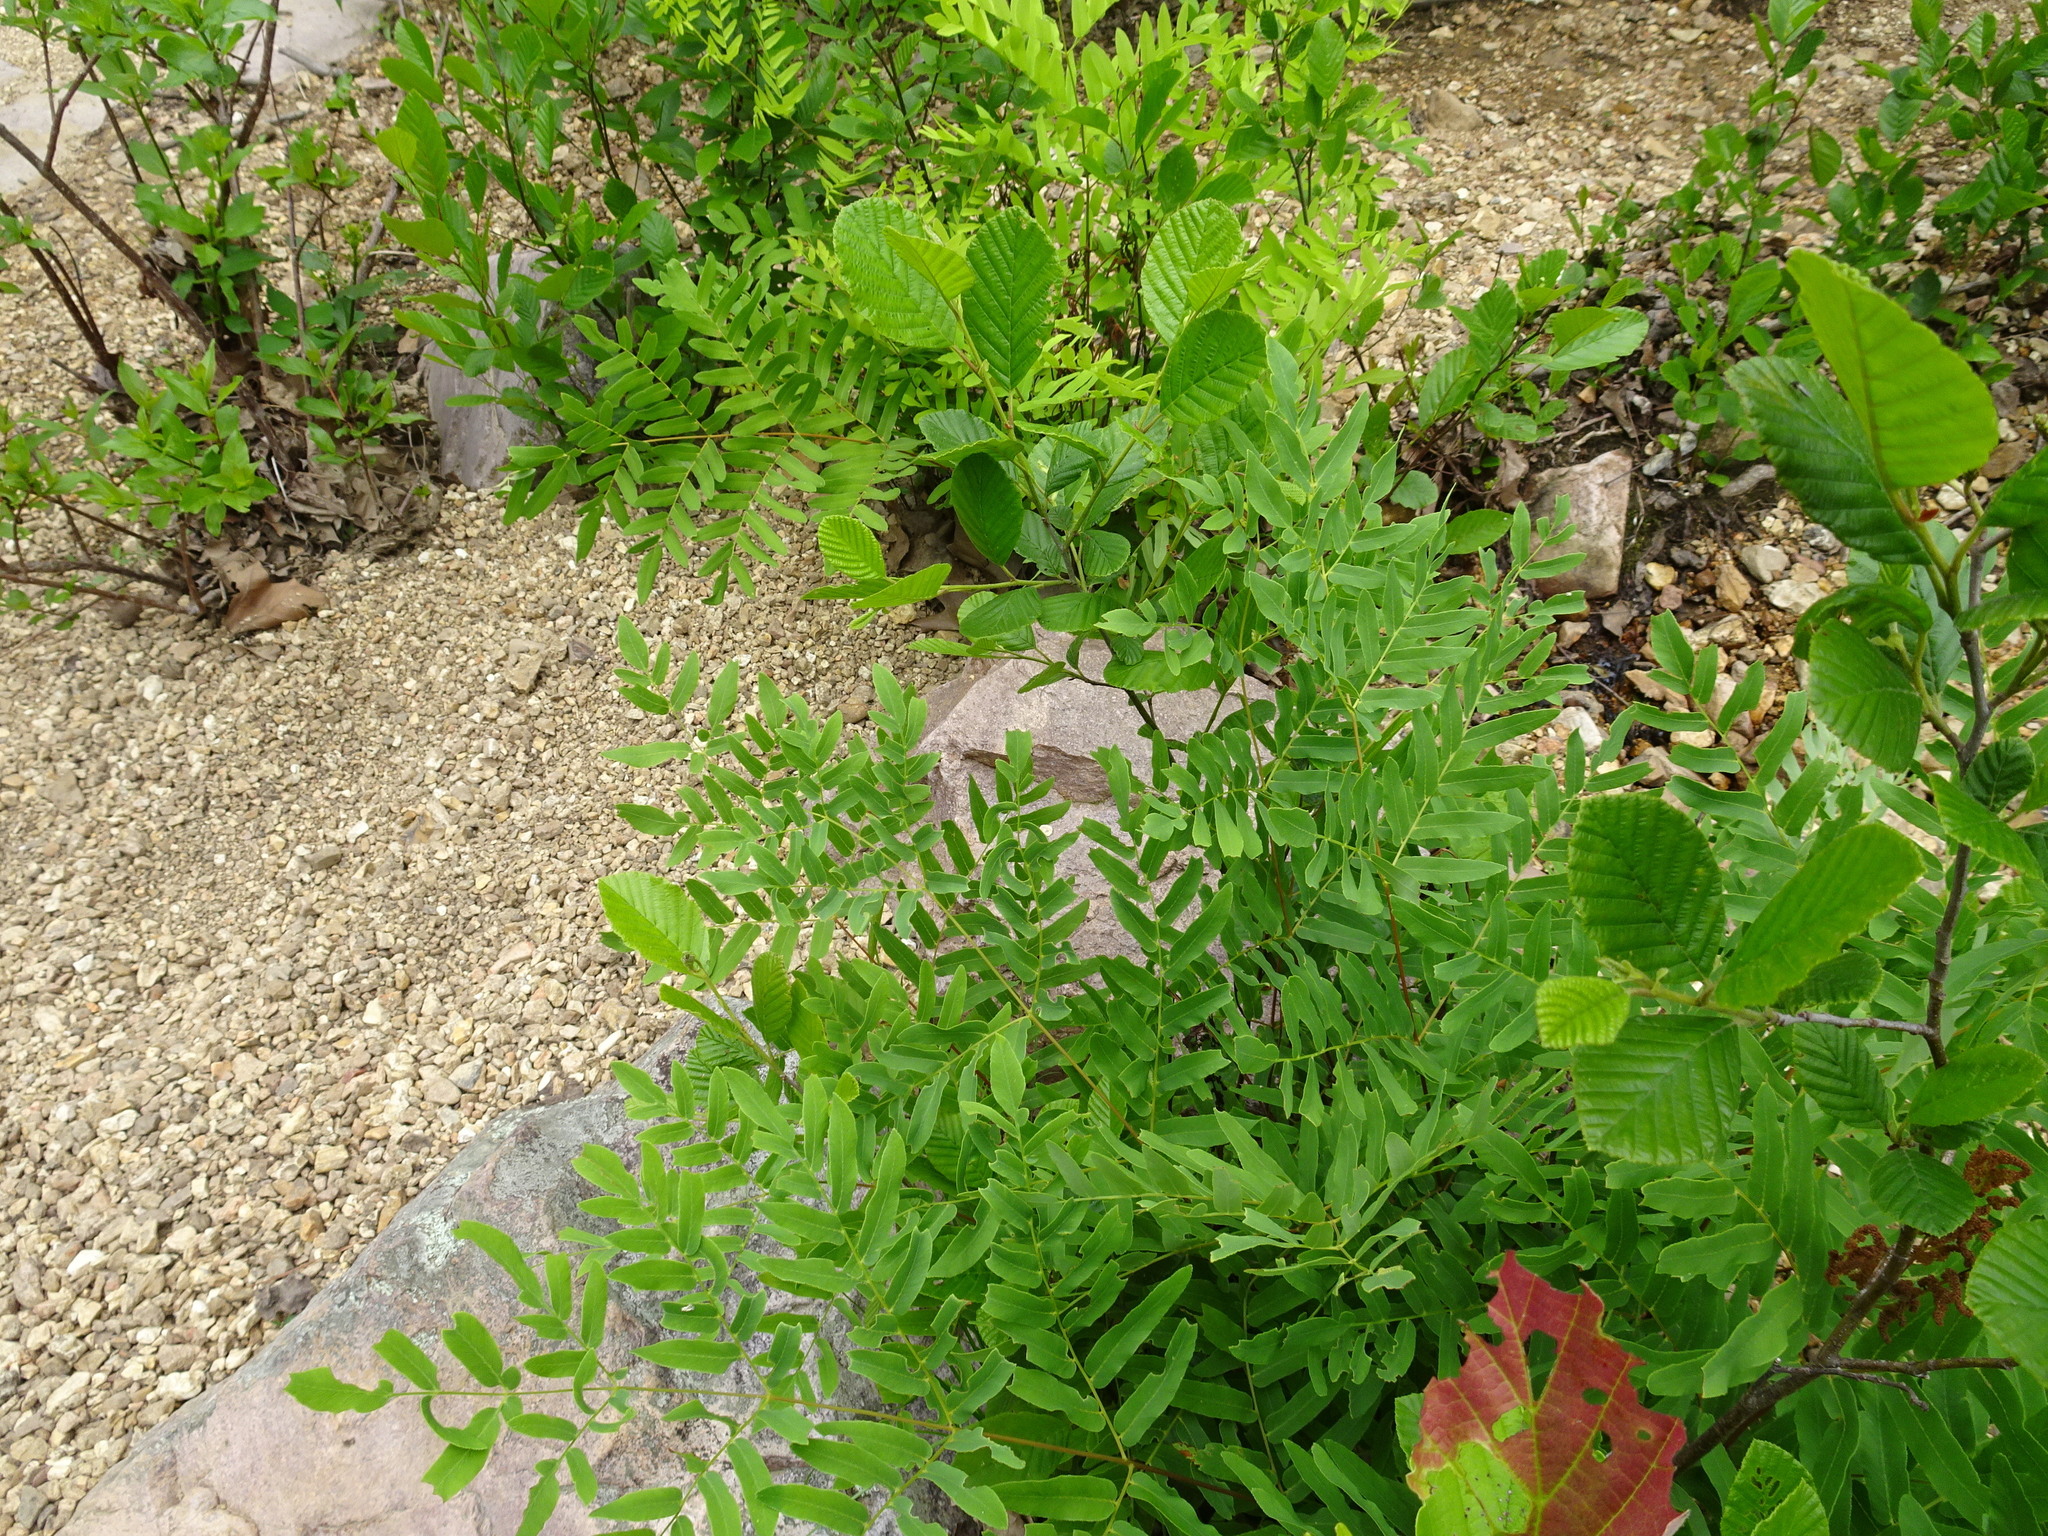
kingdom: Plantae
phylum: Tracheophyta
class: Polypodiopsida
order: Osmundales
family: Osmundaceae
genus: Osmunda
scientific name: Osmunda spectabilis
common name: American royal fern
